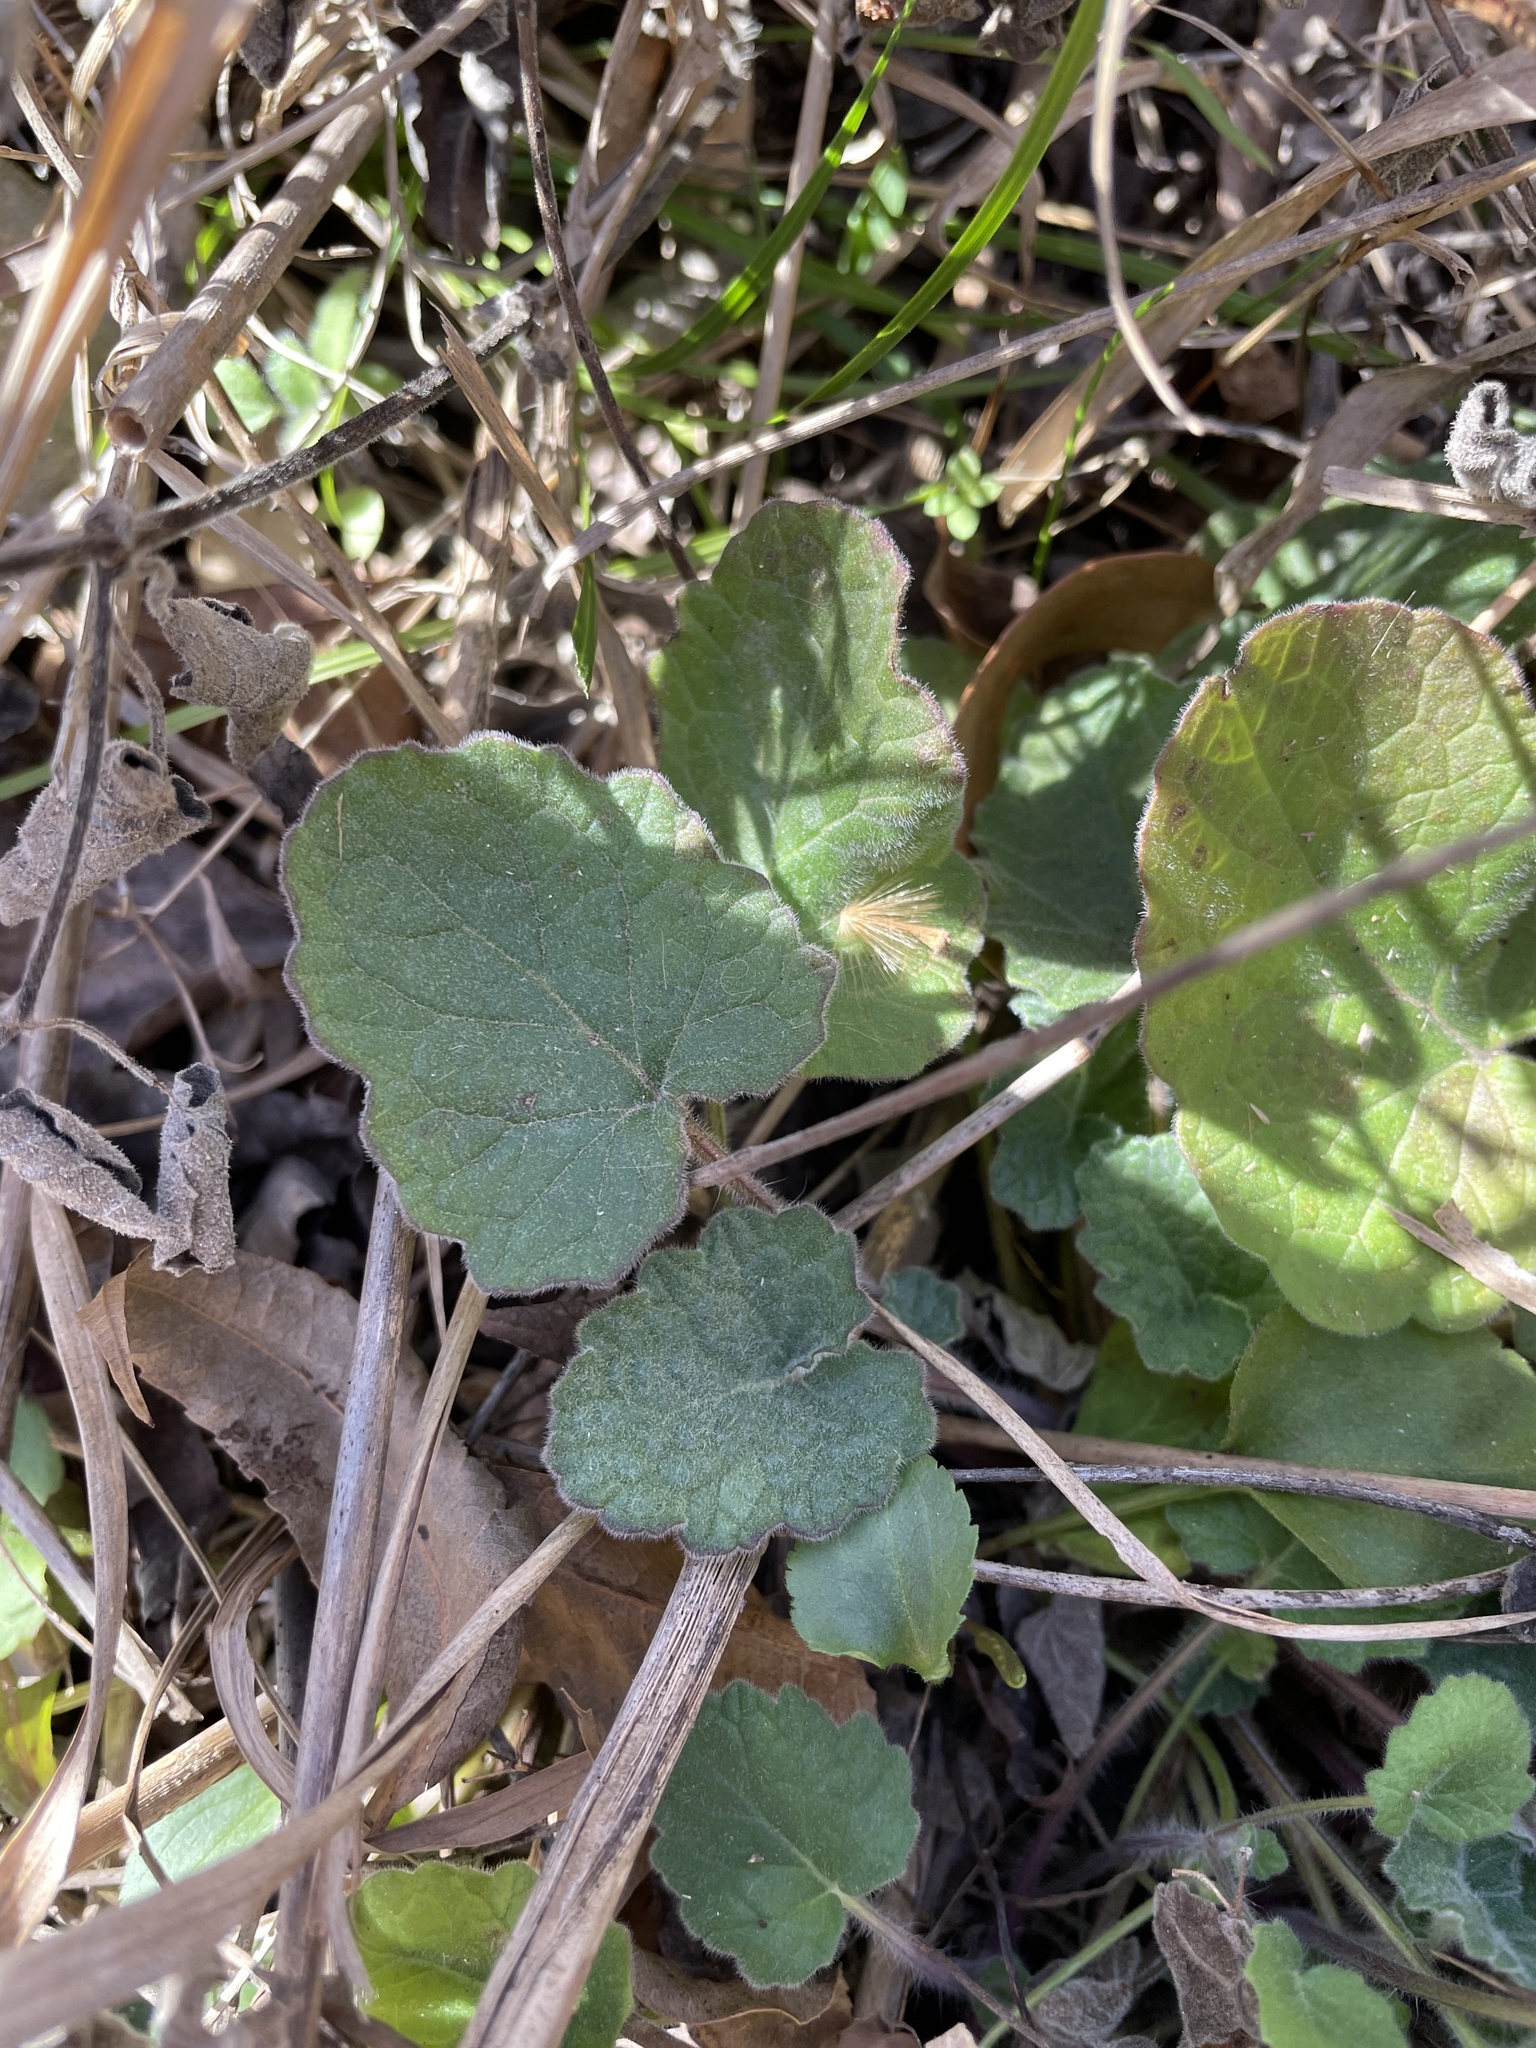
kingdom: Plantae
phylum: Tracheophyta
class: Magnoliopsida
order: Lamiales
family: Lamiaceae
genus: Salvia
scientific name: Salvia roemeriana
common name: Cedar sage
